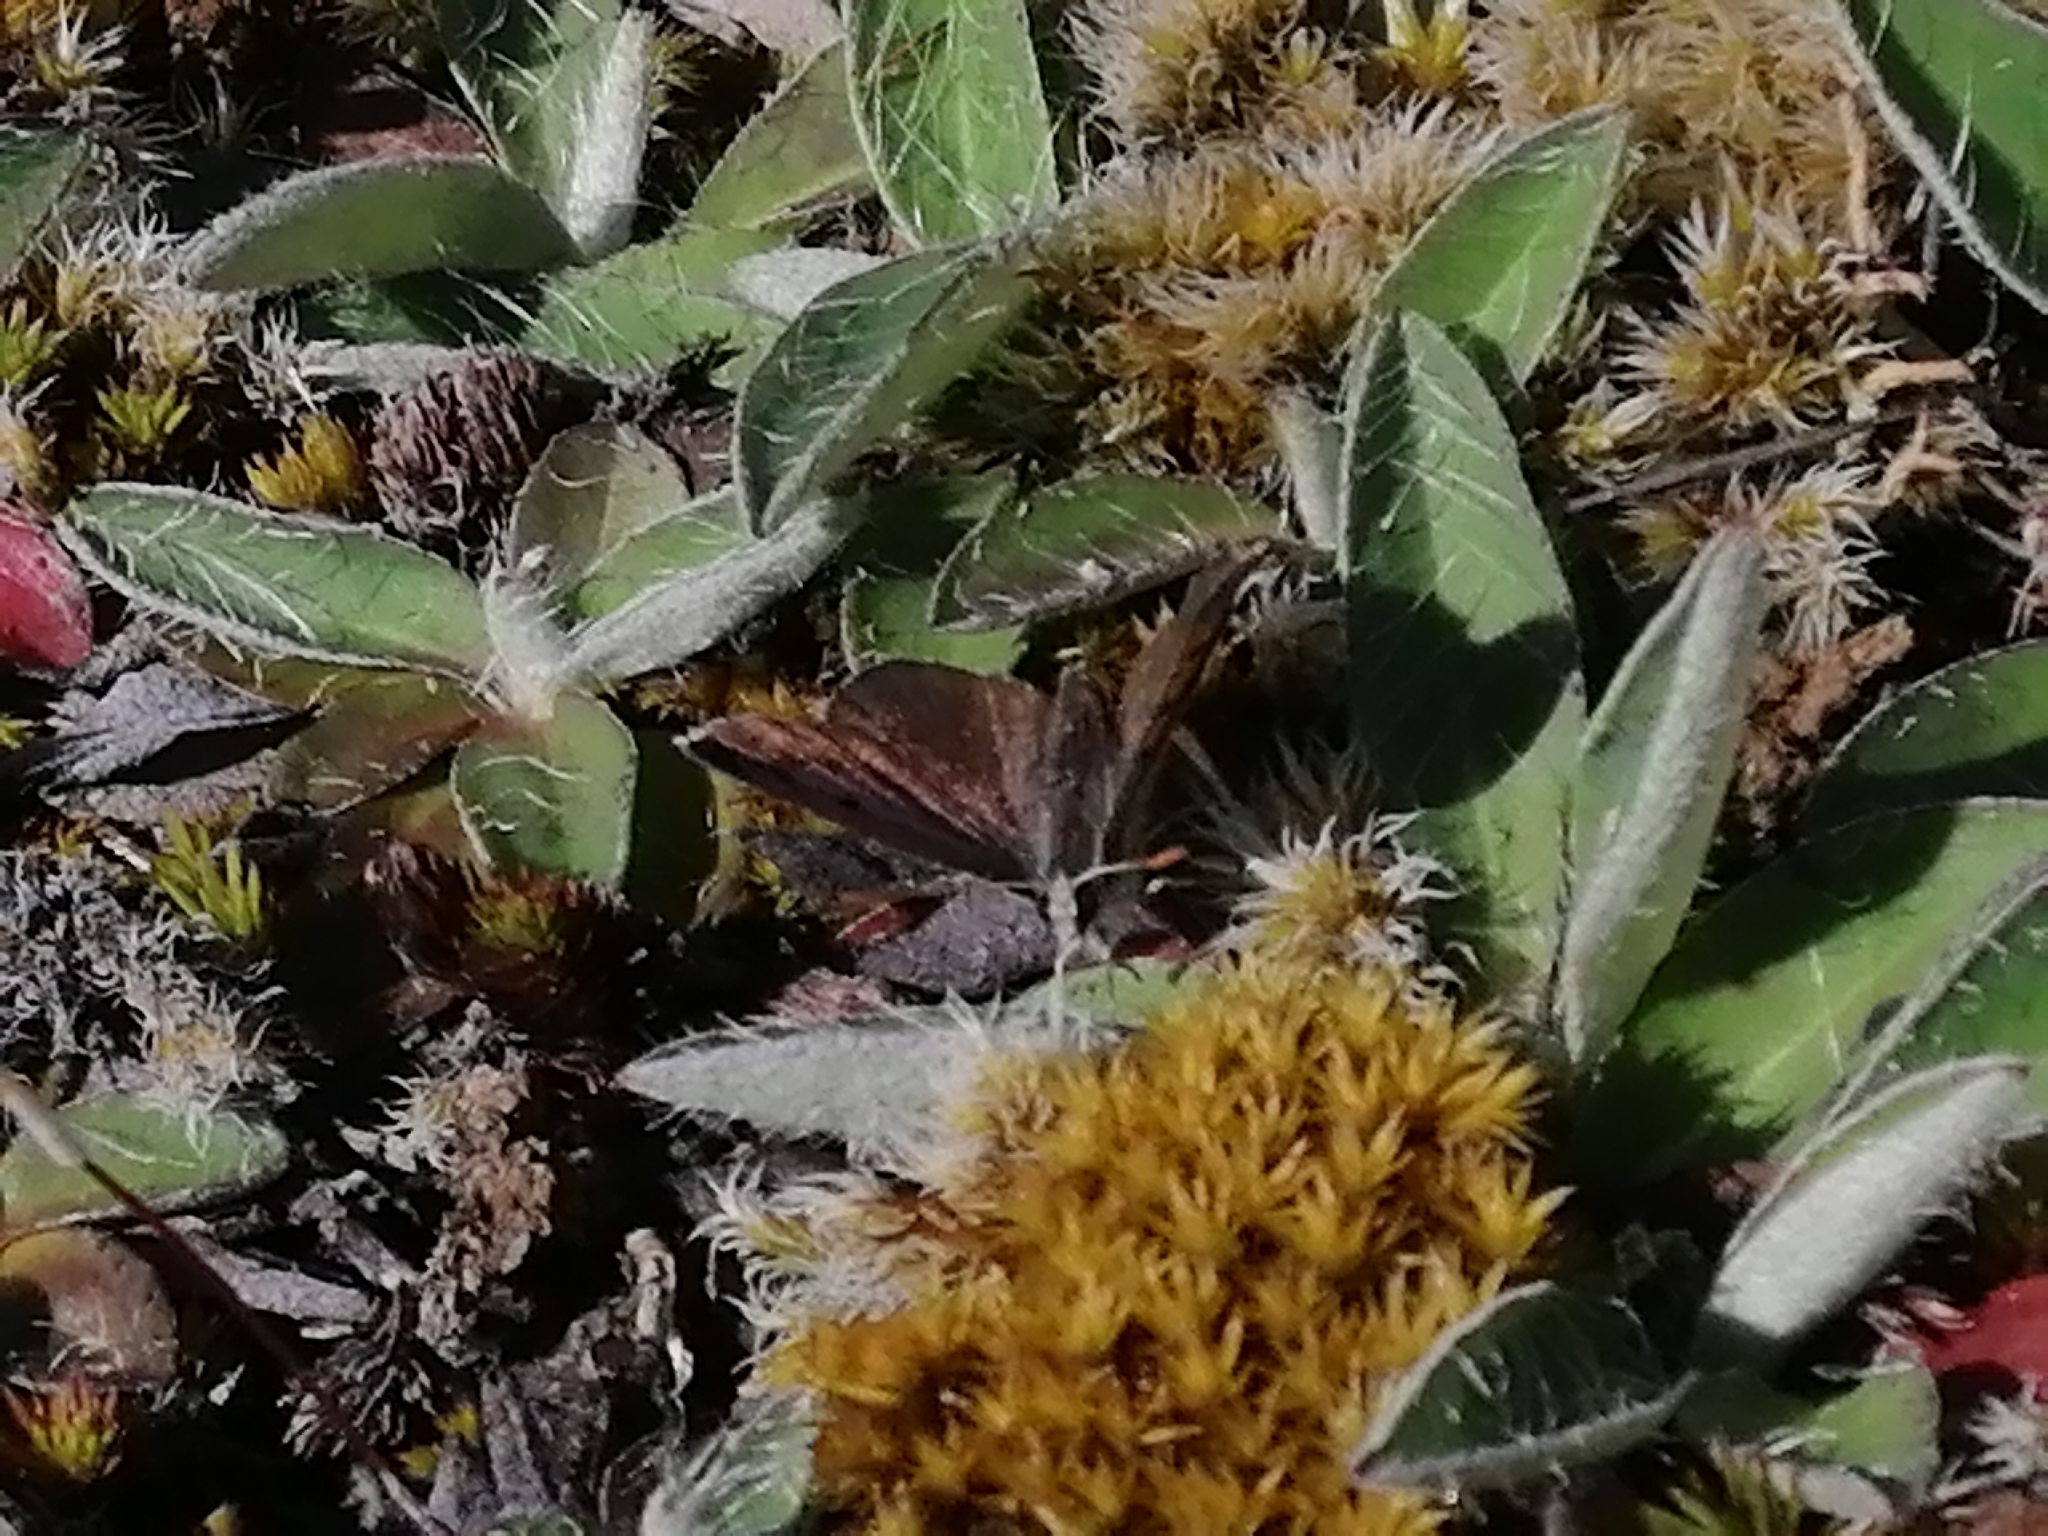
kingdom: Animalia
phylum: Arthropoda
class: Insecta
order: Lepidoptera
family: Lycaenidae
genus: Lycaena
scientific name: Lycaena tama
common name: Canterbury alpine boulder copper
